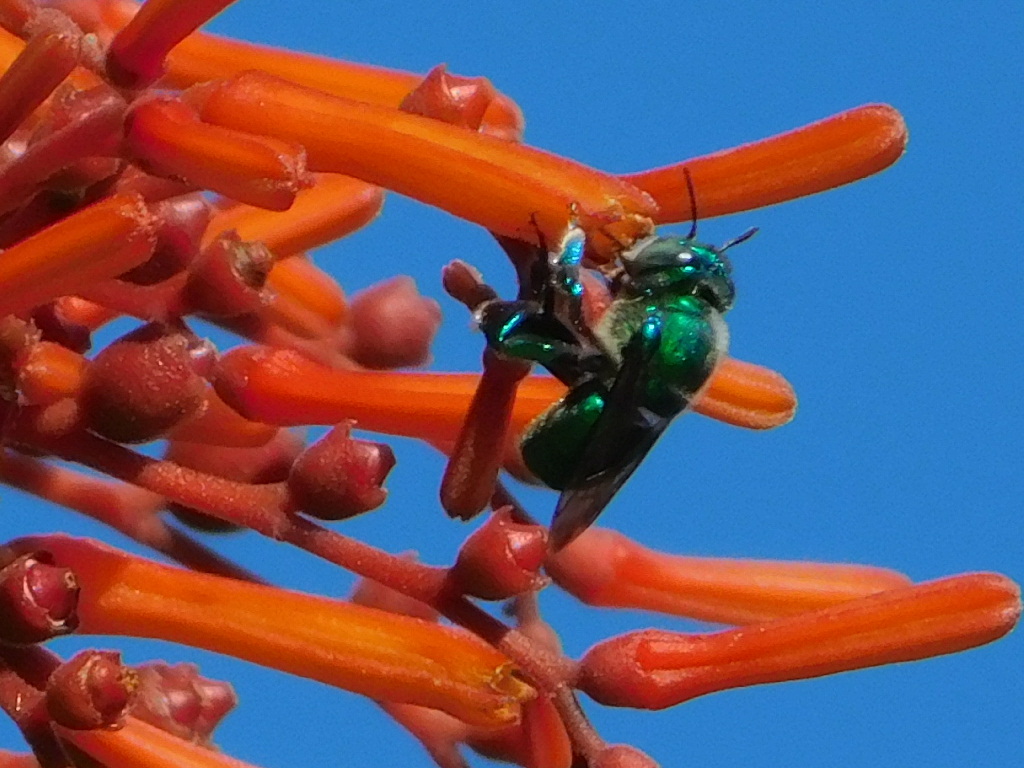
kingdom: Animalia
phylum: Arthropoda
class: Insecta
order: Hymenoptera
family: Apidae
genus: Euglossa
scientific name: Euglossa dilemma
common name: Green orchid bee
